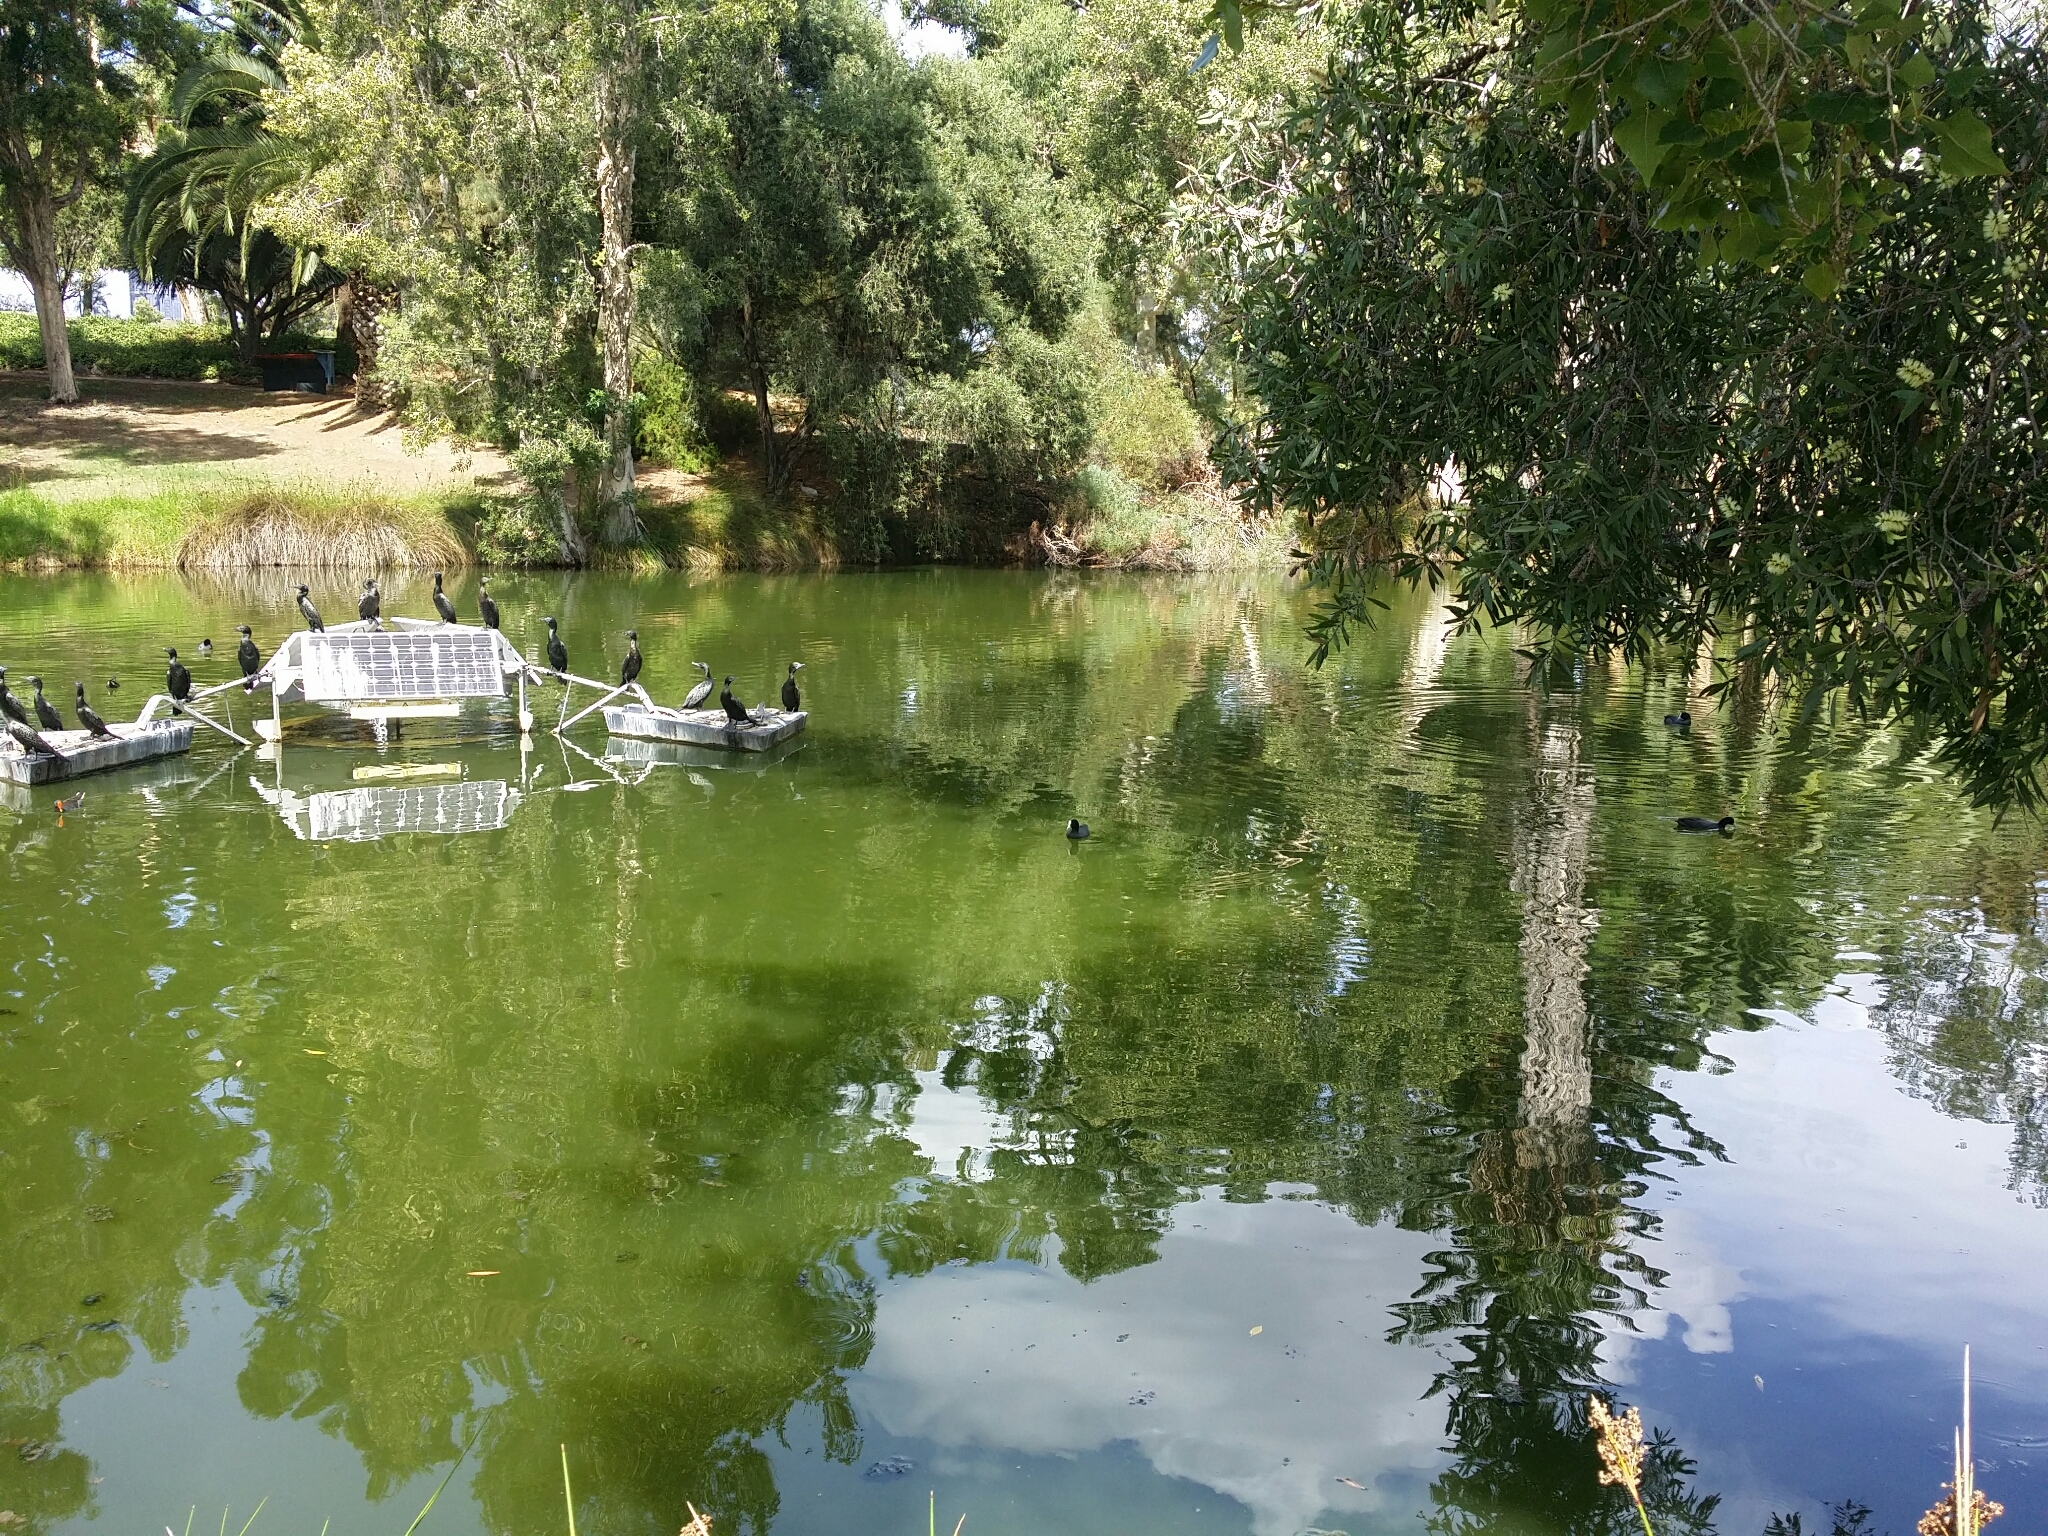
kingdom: Animalia
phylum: Chordata
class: Aves
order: Gruiformes
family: Rallidae
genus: Fulica
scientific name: Fulica atra
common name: Eurasian coot
